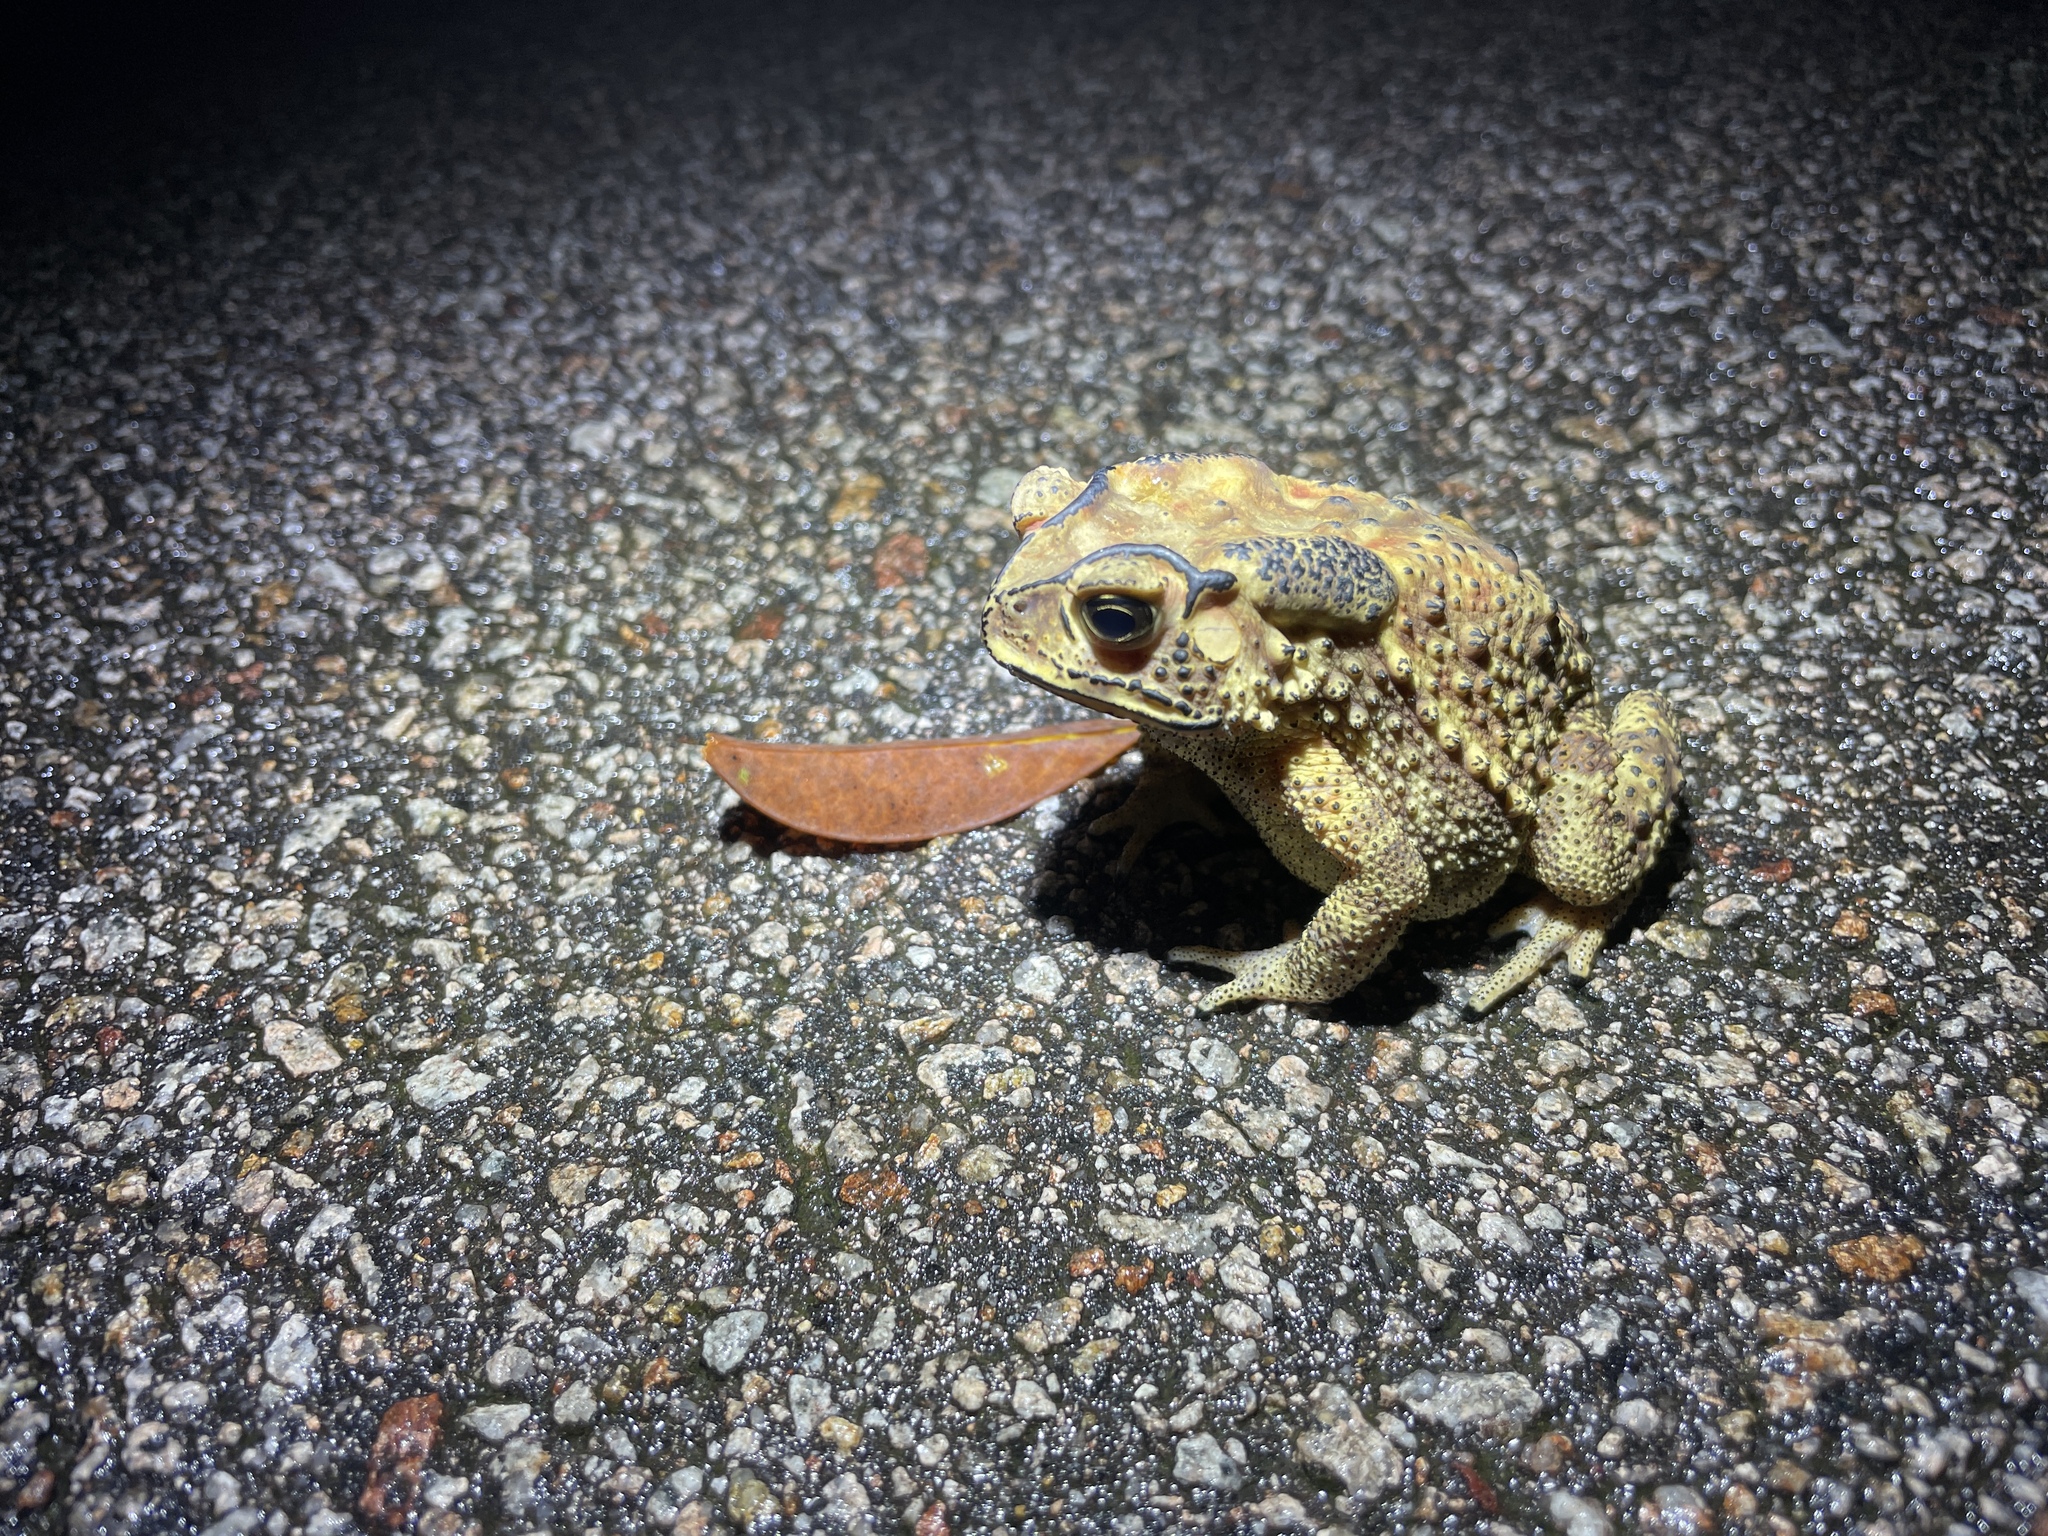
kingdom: Animalia
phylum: Chordata
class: Amphibia
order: Anura
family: Bufonidae
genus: Duttaphrynus
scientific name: Duttaphrynus melanostictus
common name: Common sunda toad
